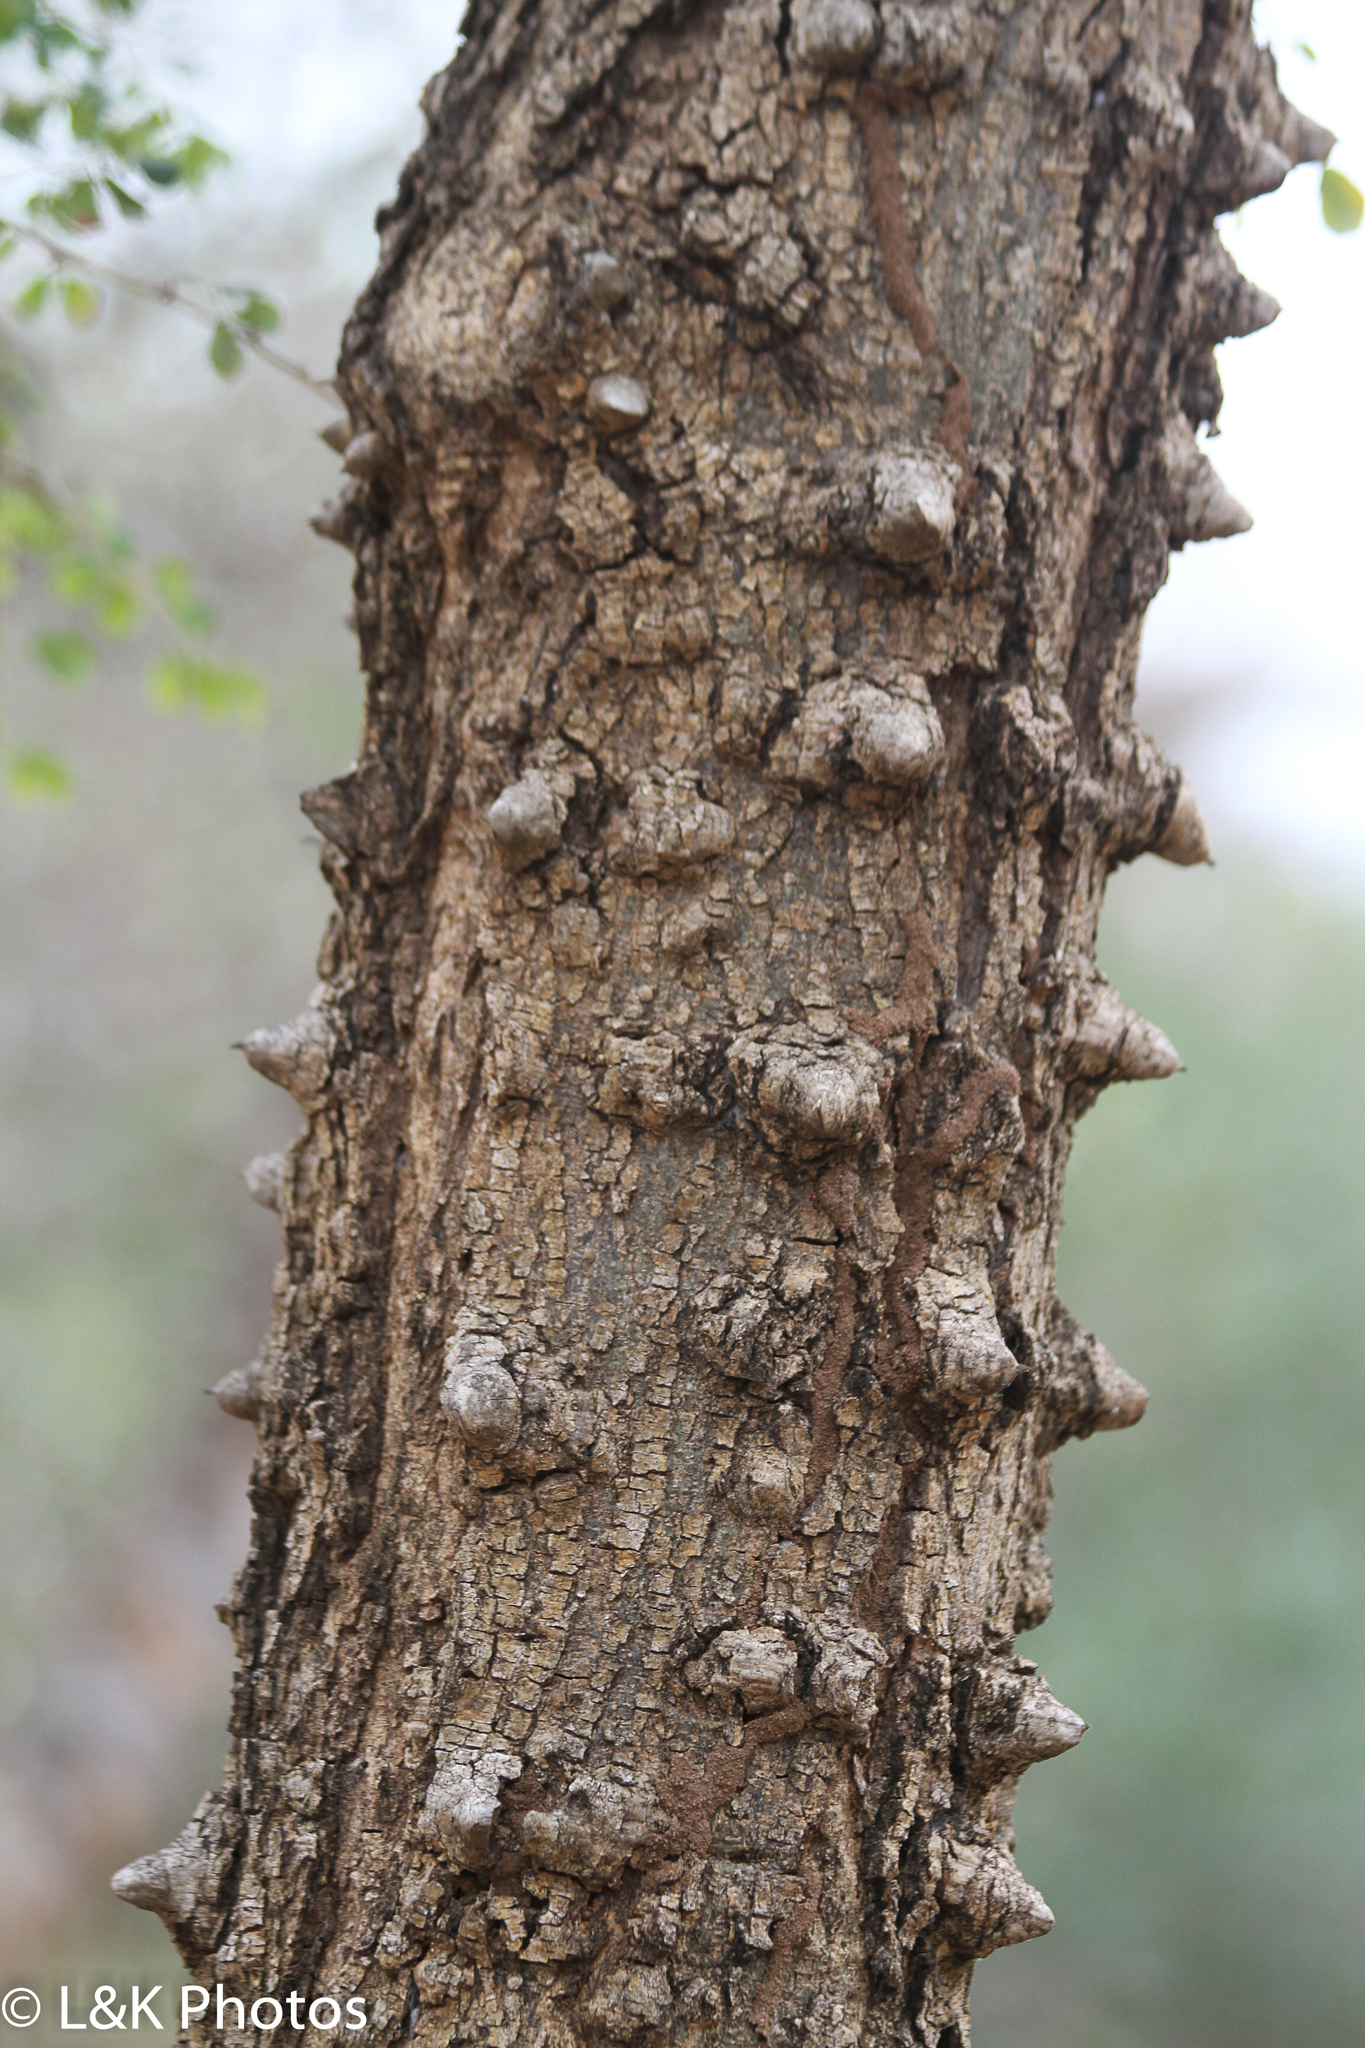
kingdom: Plantae
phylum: Tracheophyta
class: Magnoliopsida
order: Fabales
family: Fabaceae
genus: Senegalia
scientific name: Senegalia nigrescens
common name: Knobthorn
